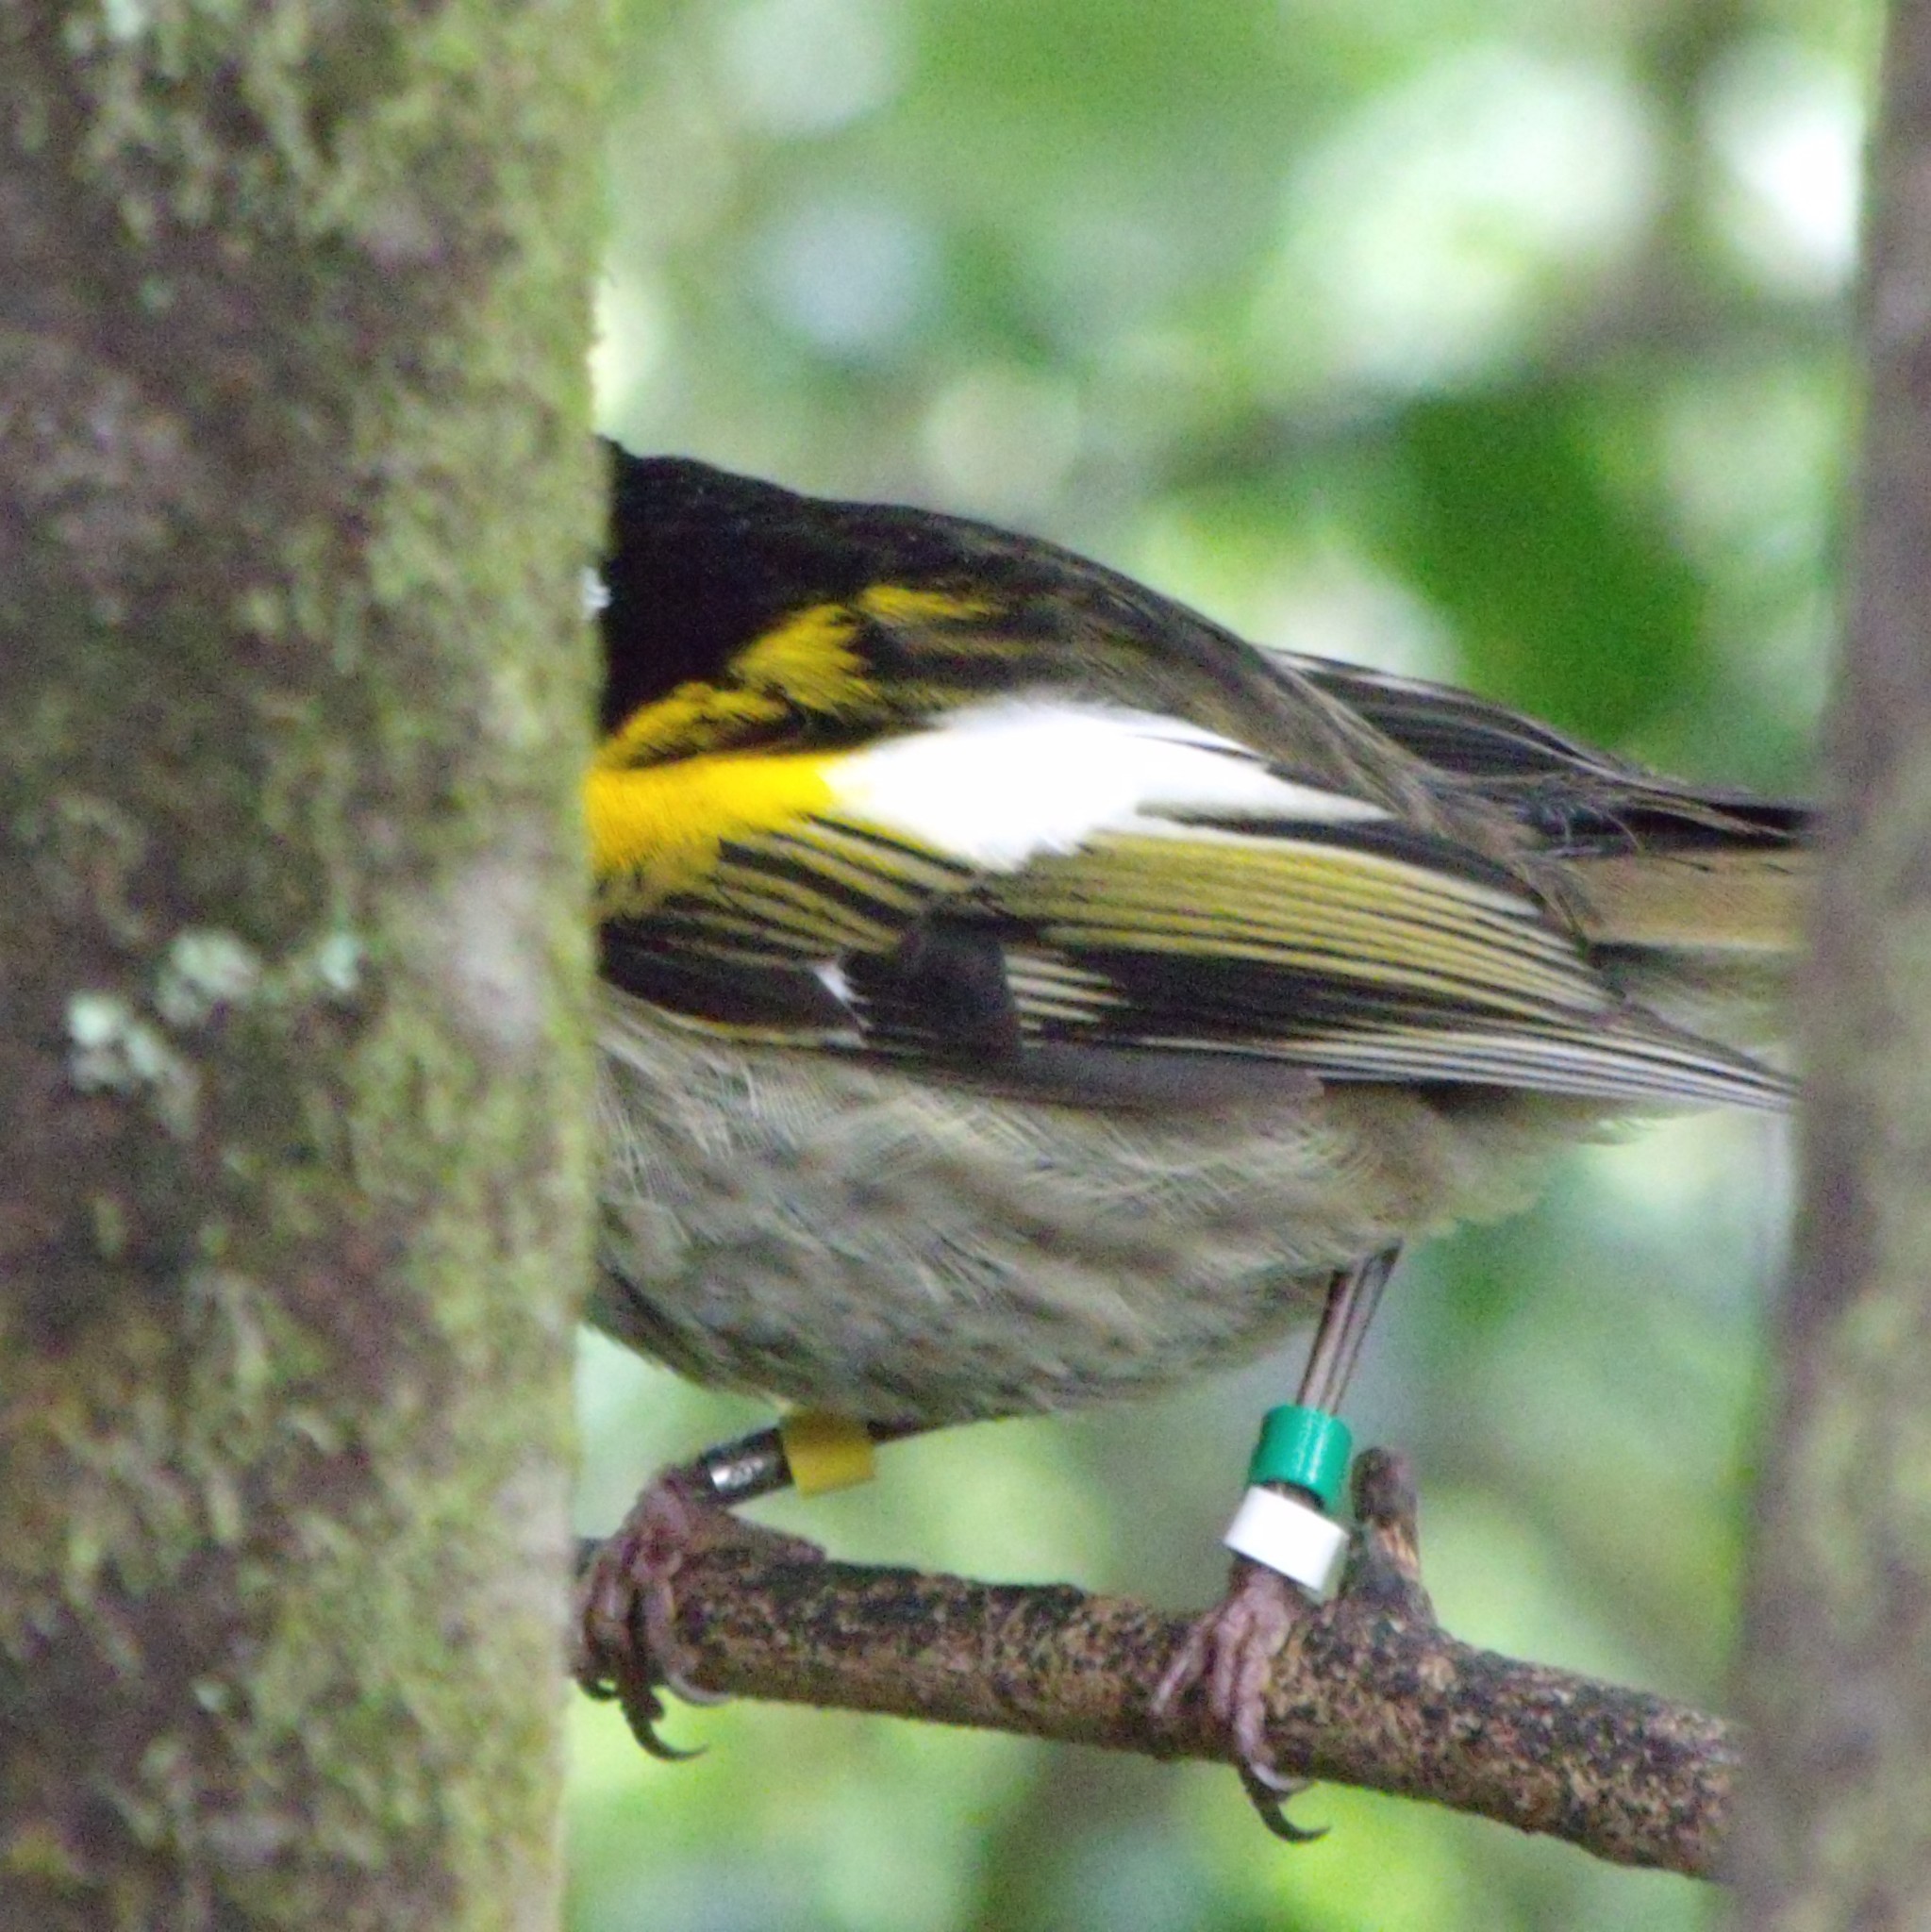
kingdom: Animalia
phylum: Chordata
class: Aves
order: Passeriformes
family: Notiomystidae
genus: Notiomystis
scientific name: Notiomystis cincta
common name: Stitchbird
